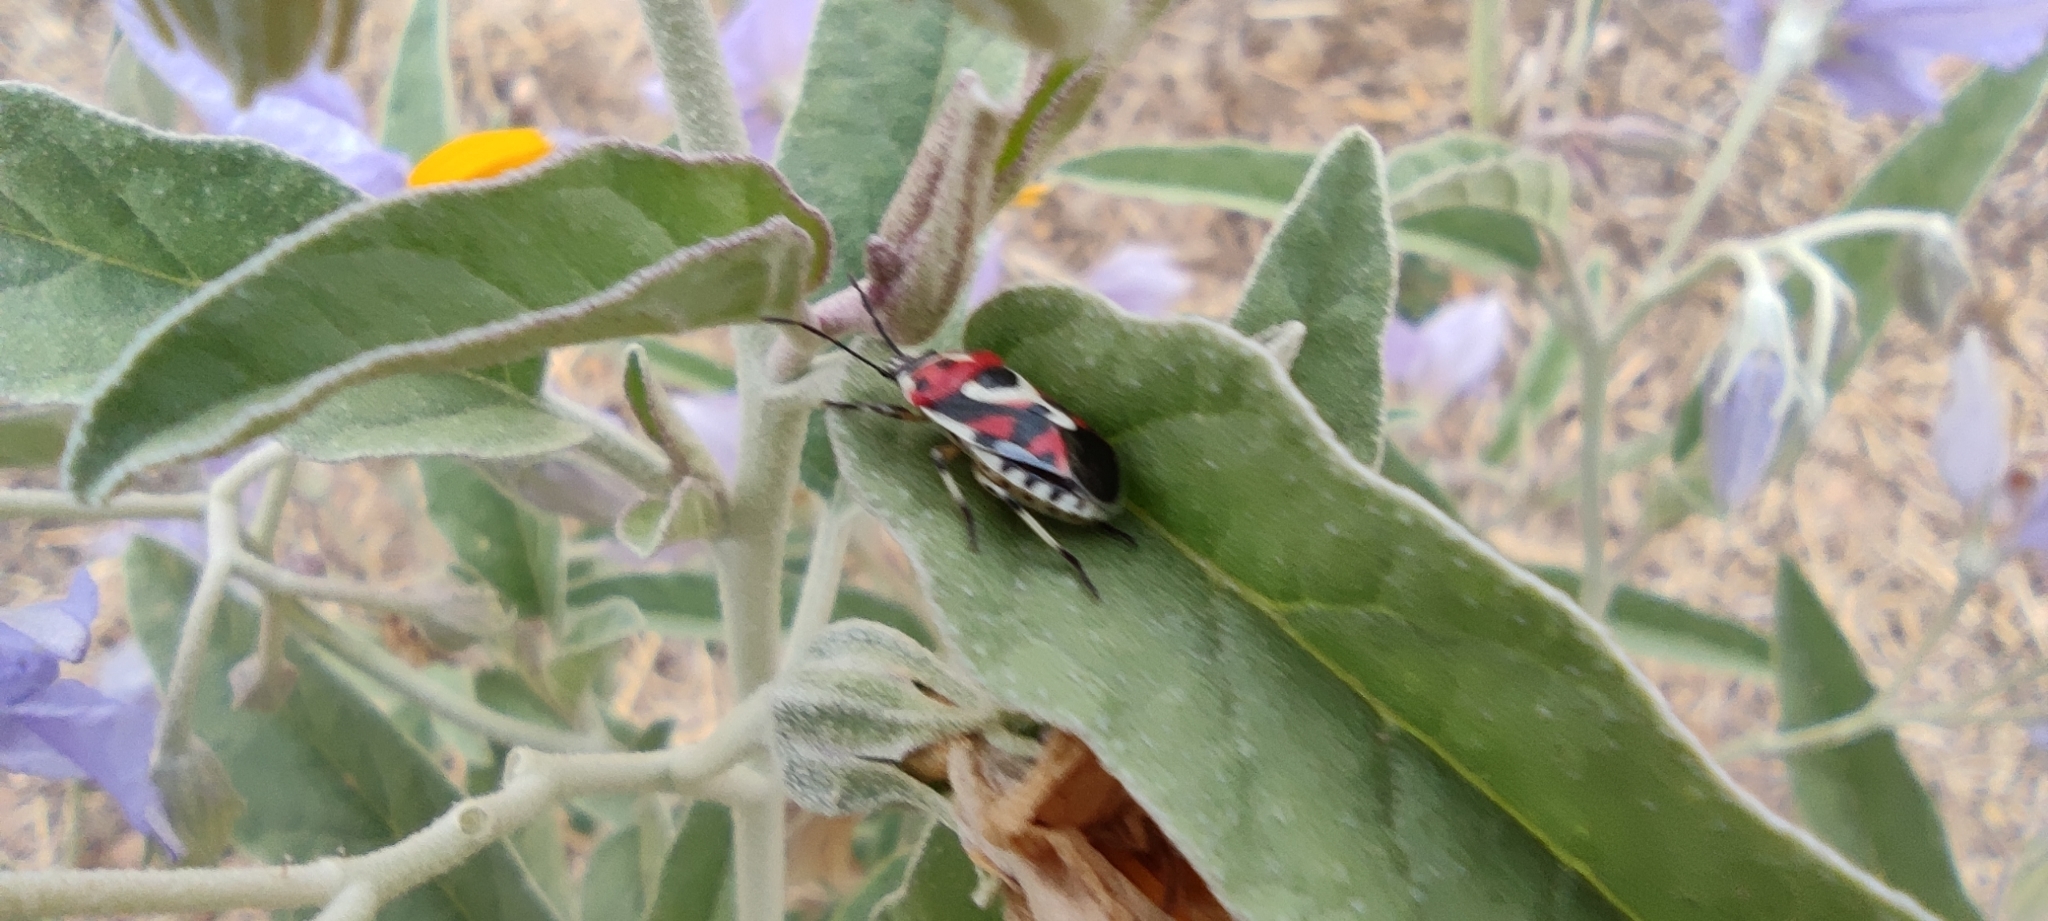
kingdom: Animalia
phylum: Arthropoda
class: Insecta
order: Hemiptera
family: Pentatomidae
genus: Eurydema
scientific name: Eurydema ornata
